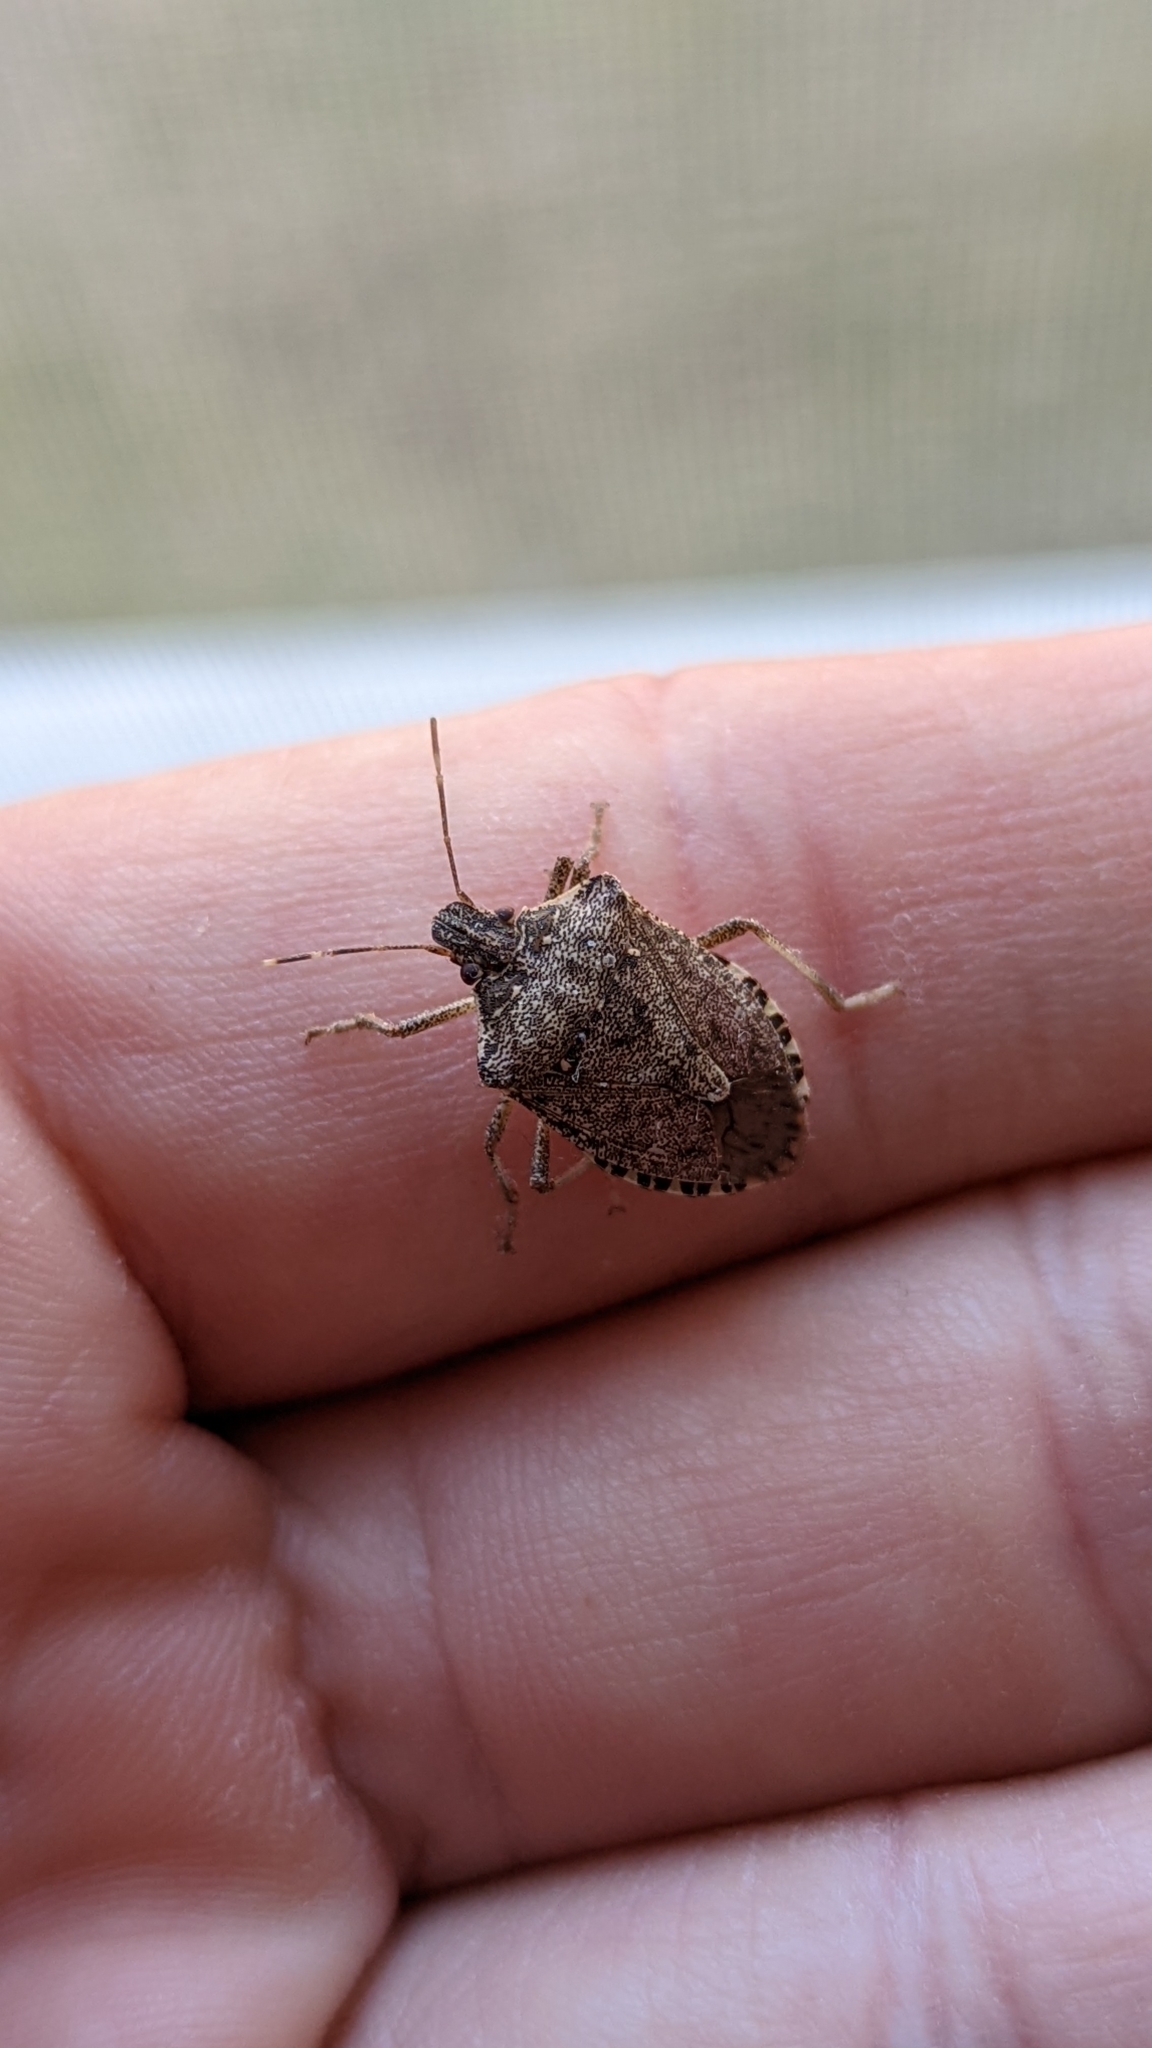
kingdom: Animalia
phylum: Arthropoda
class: Insecta
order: Hemiptera
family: Pentatomidae
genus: Halyomorpha
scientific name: Halyomorpha halys
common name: Brown marmorated stink bug
